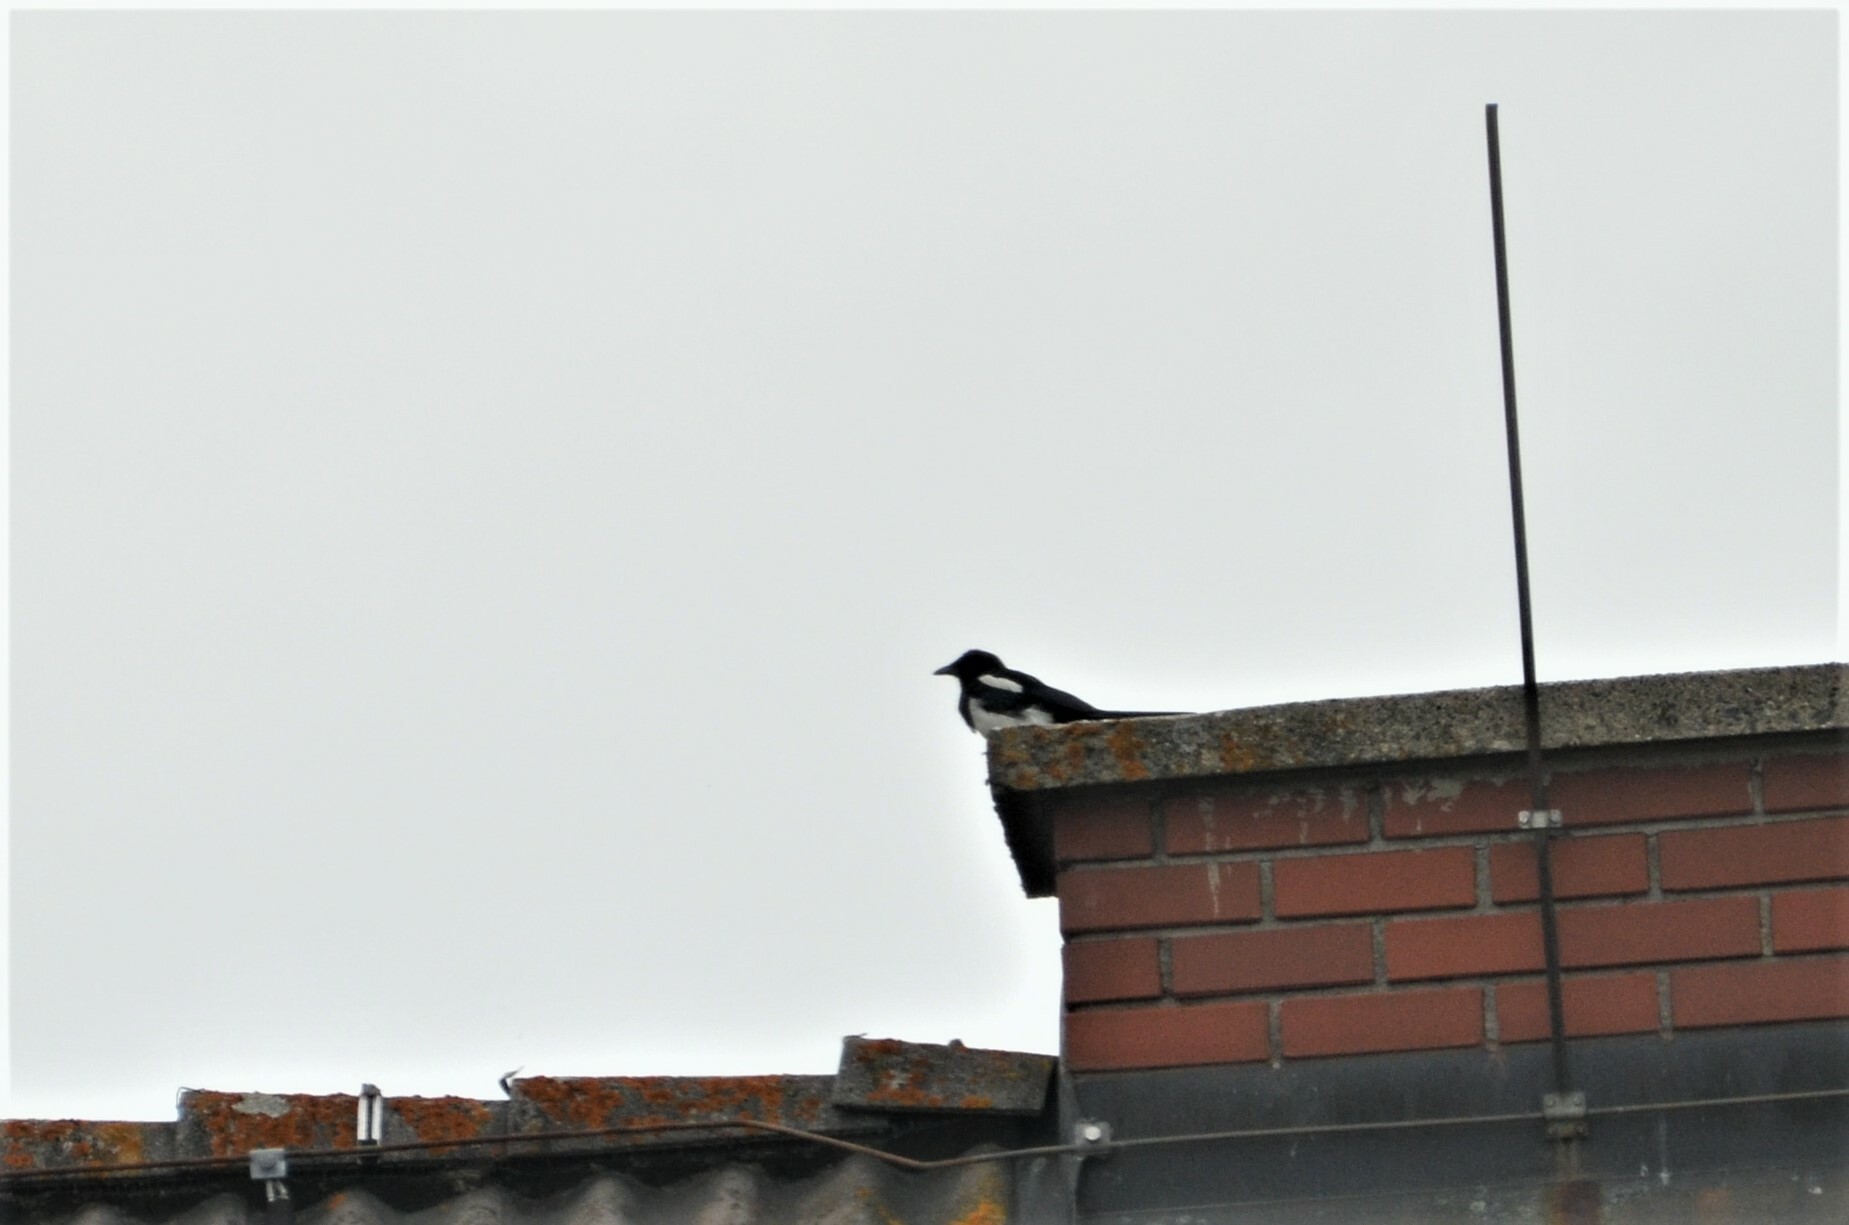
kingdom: Animalia
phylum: Chordata
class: Aves
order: Passeriformes
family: Corvidae
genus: Pica
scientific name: Pica pica
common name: Eurasian magpie
